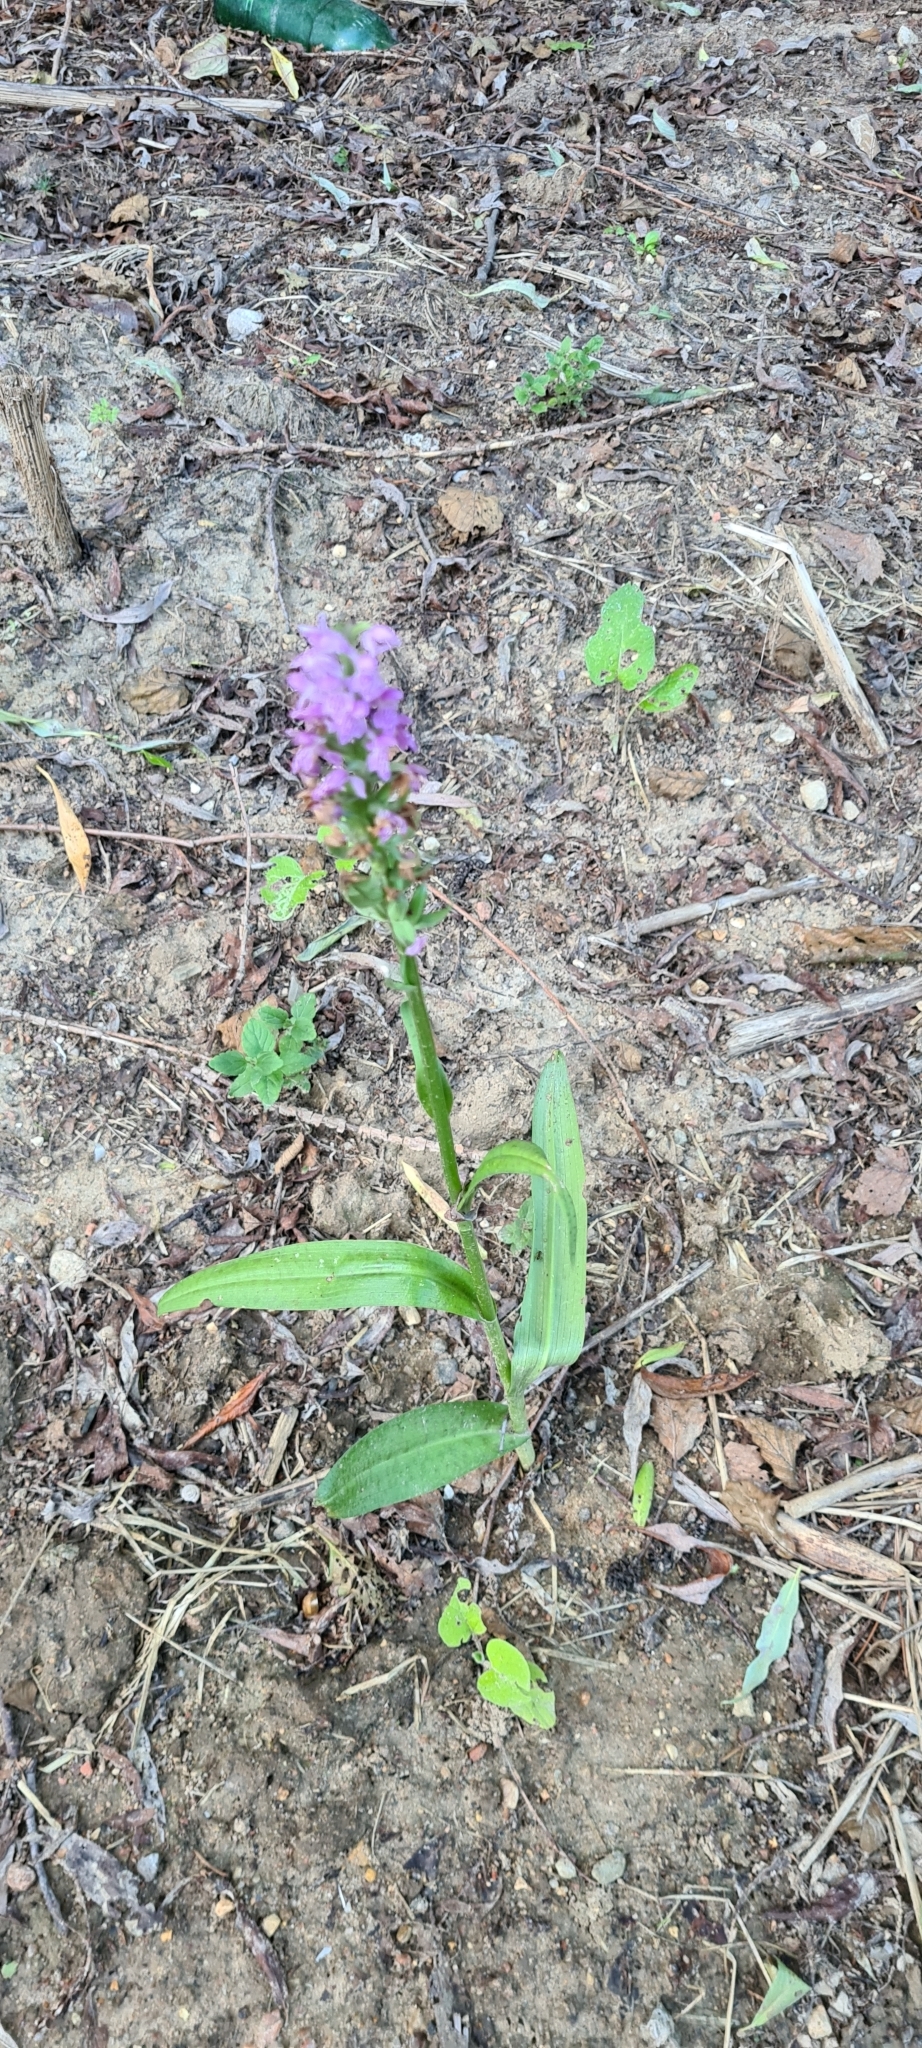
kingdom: Plantae
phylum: Tracheophyta
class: Liliopsida
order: Asparagales
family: Orchidaceae
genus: Dactylorhiza
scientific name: Dactylorhiza majalis
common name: Marsh orchid
